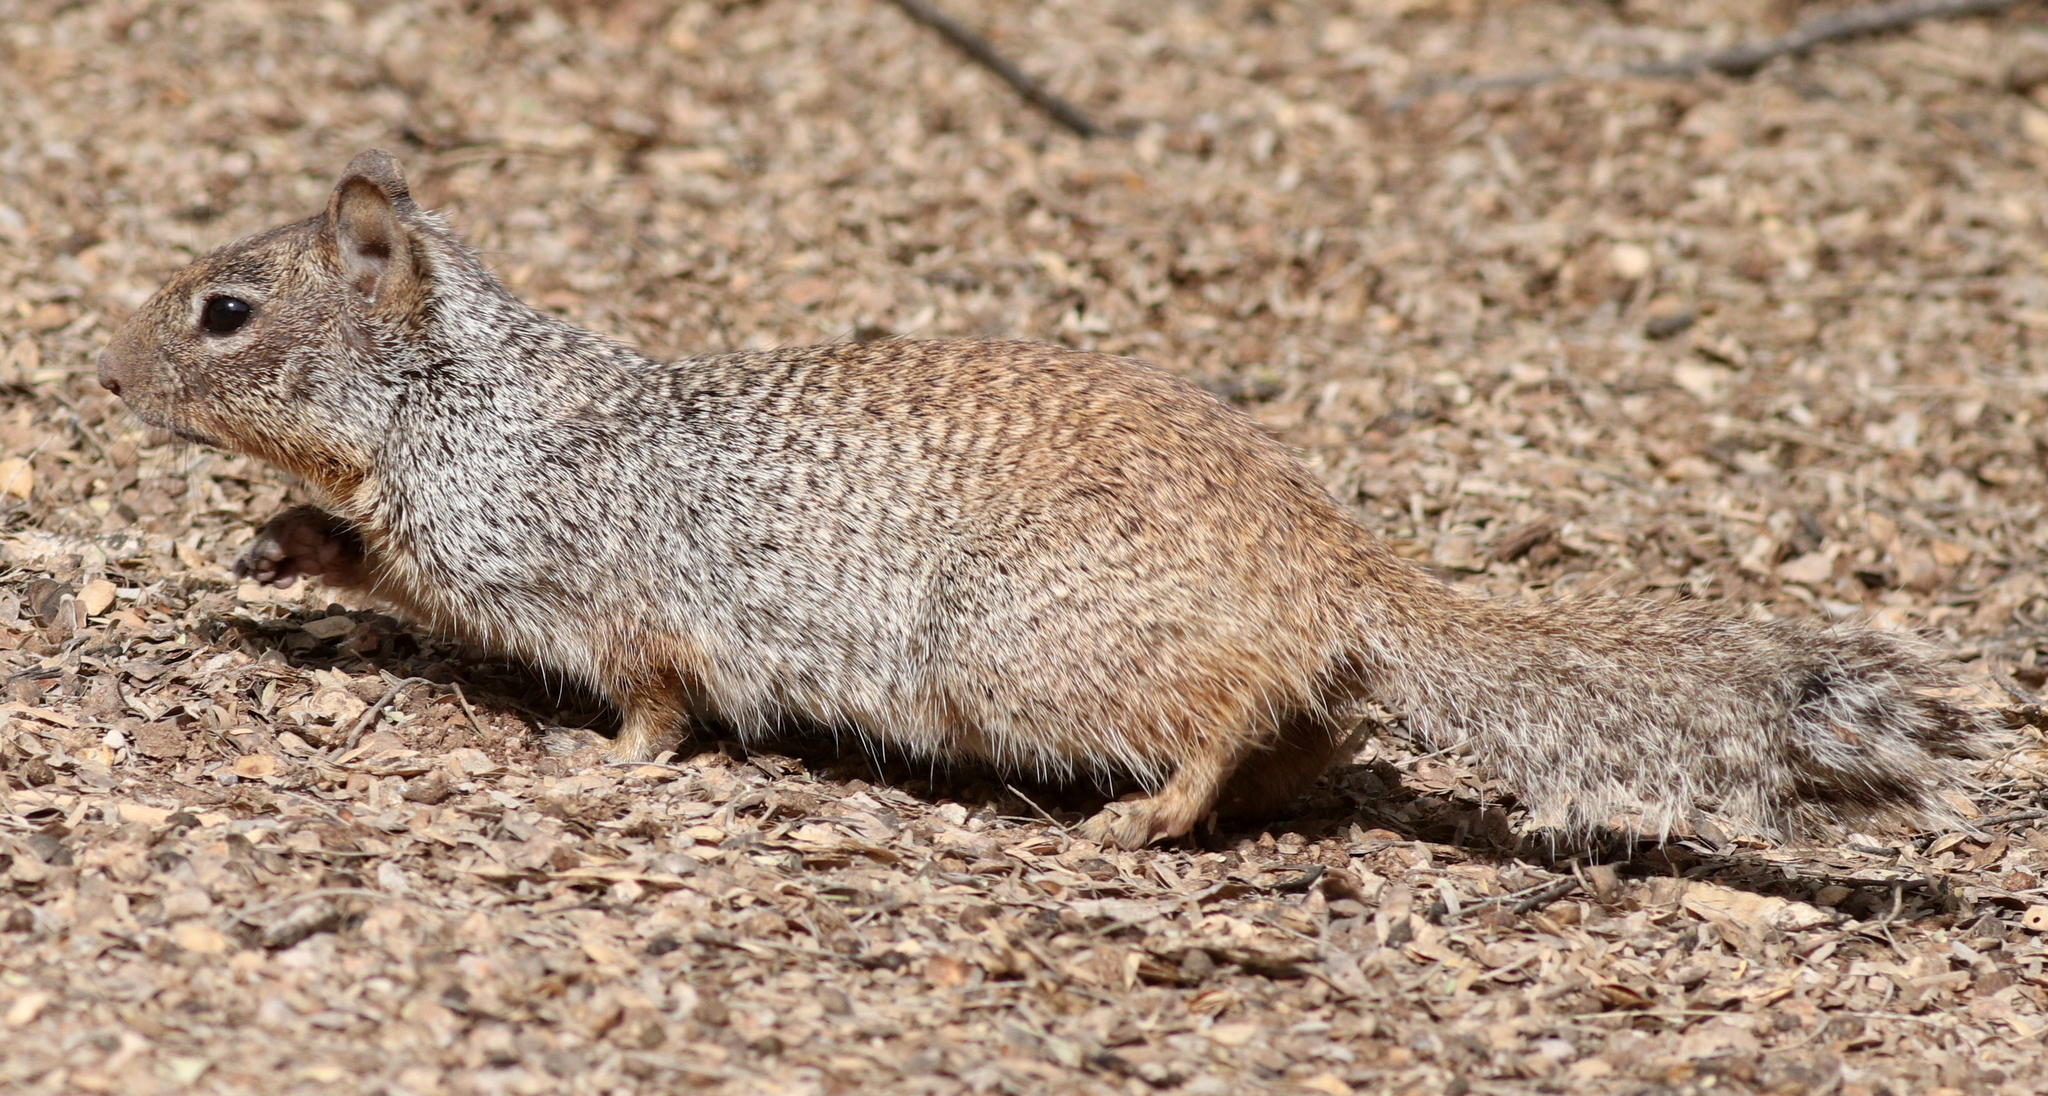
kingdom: Animalia
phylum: Chordata
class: Mammalia
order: Rodentia
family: Sciuridae
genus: Otospermophilus
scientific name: Otospermophilus variegatus
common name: Rock squirrel
